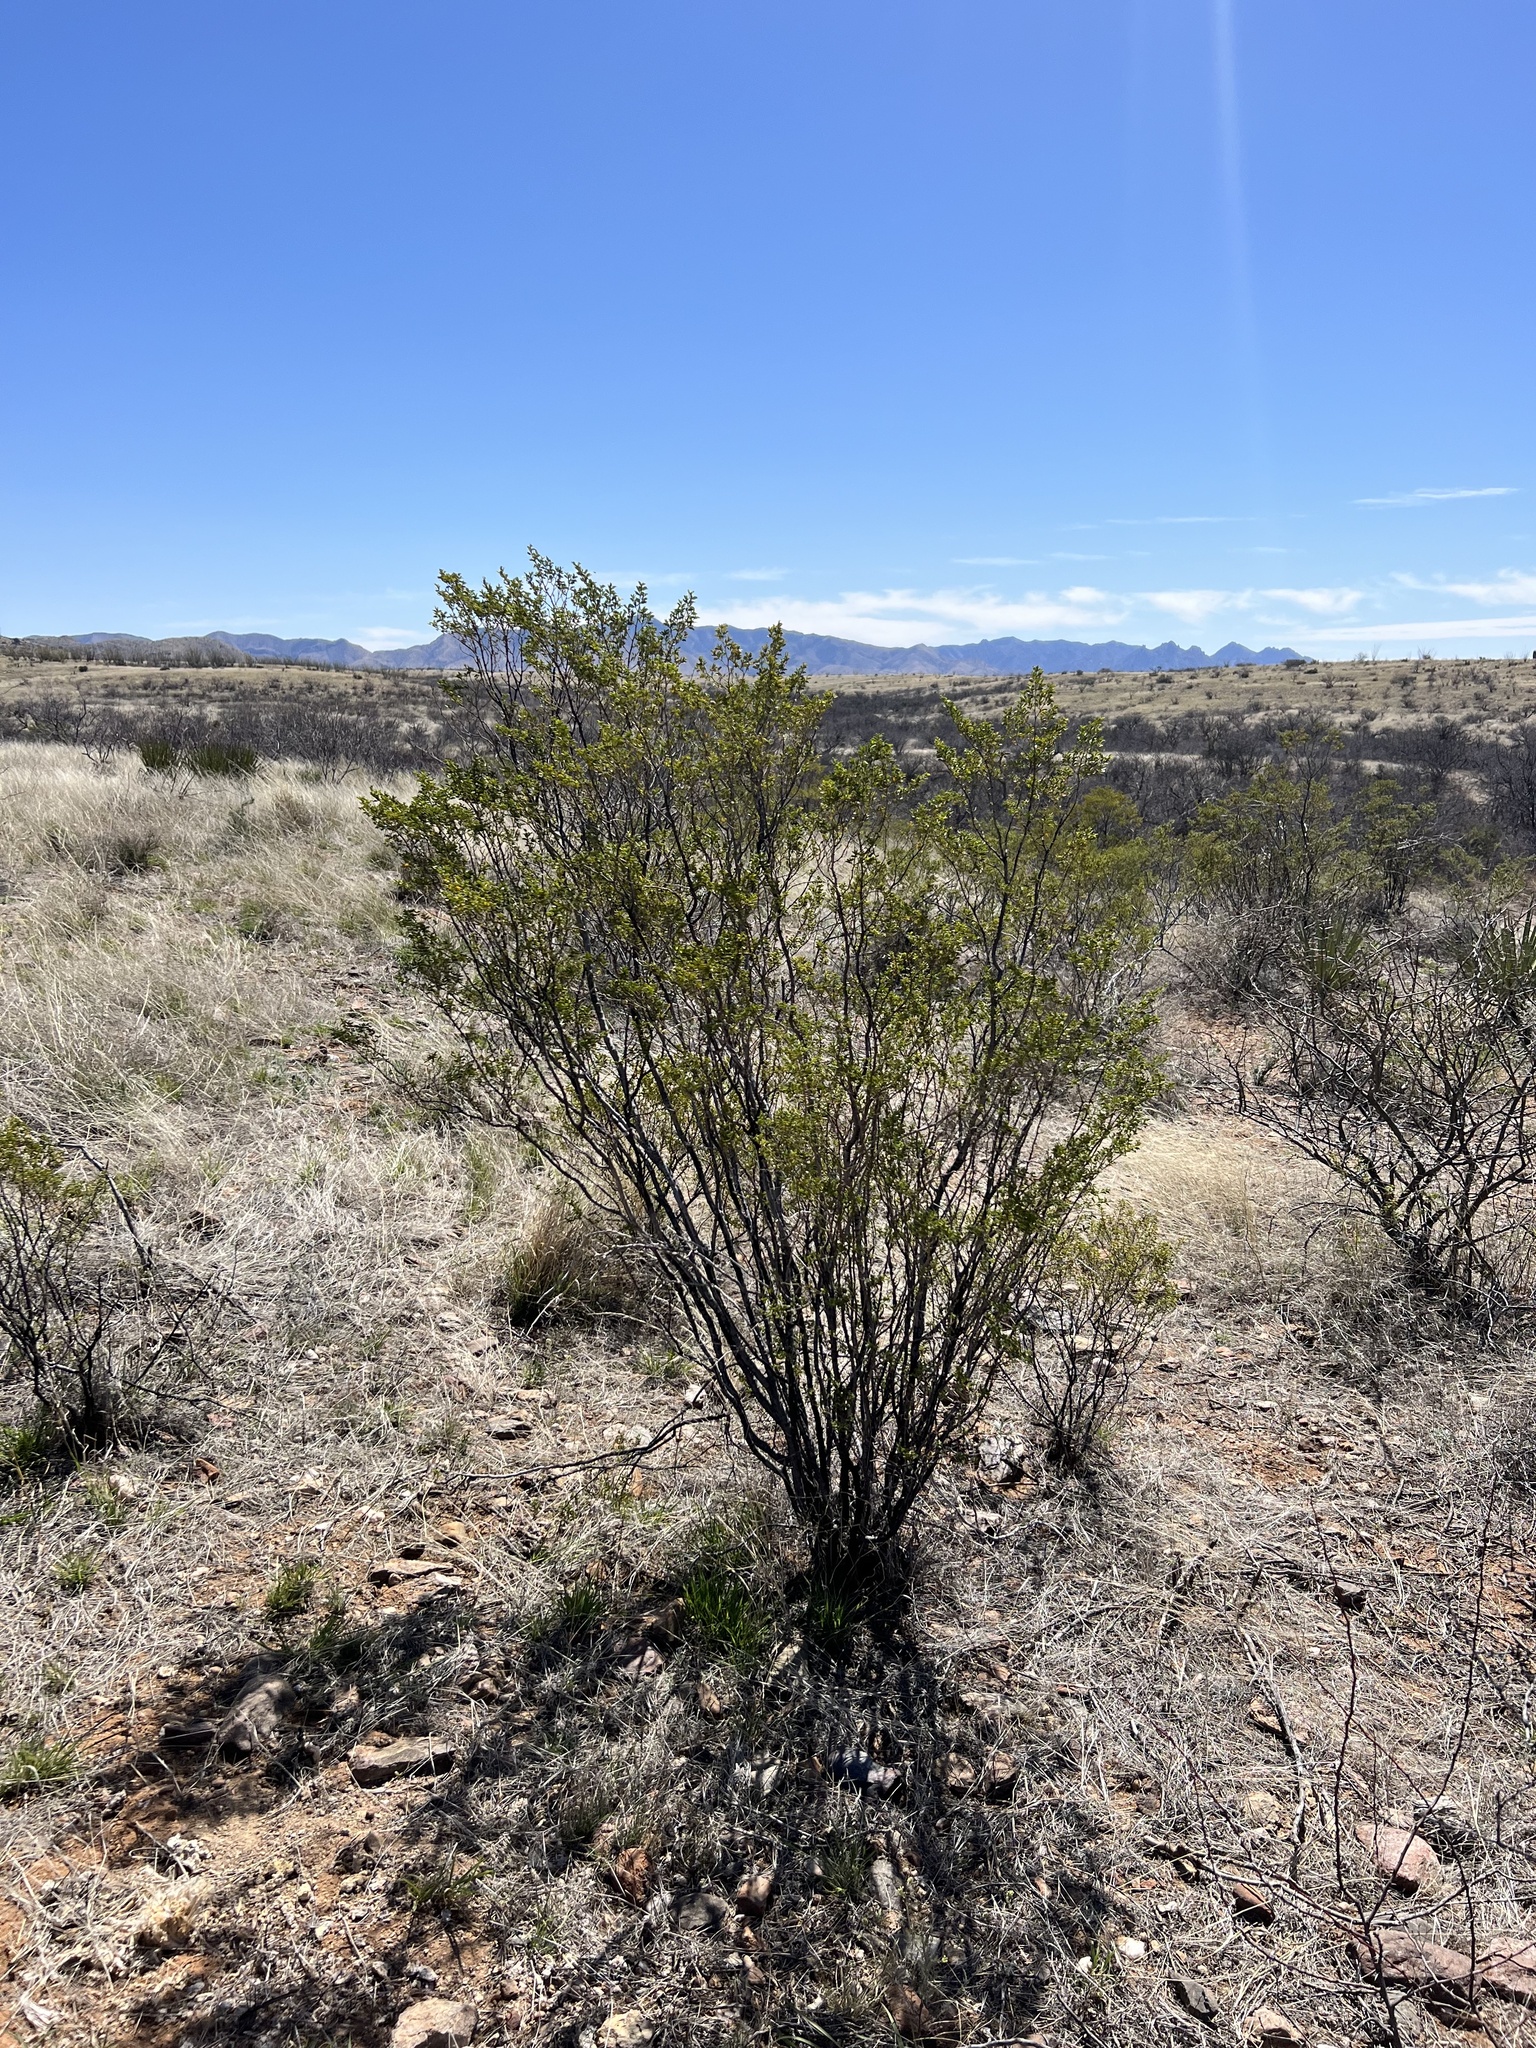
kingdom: Plantae
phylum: Tracheophyta
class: Magnoliopsida
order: Zygophyllales
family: Zygophyllaceae
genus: Larrea
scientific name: Larrea tridentata
